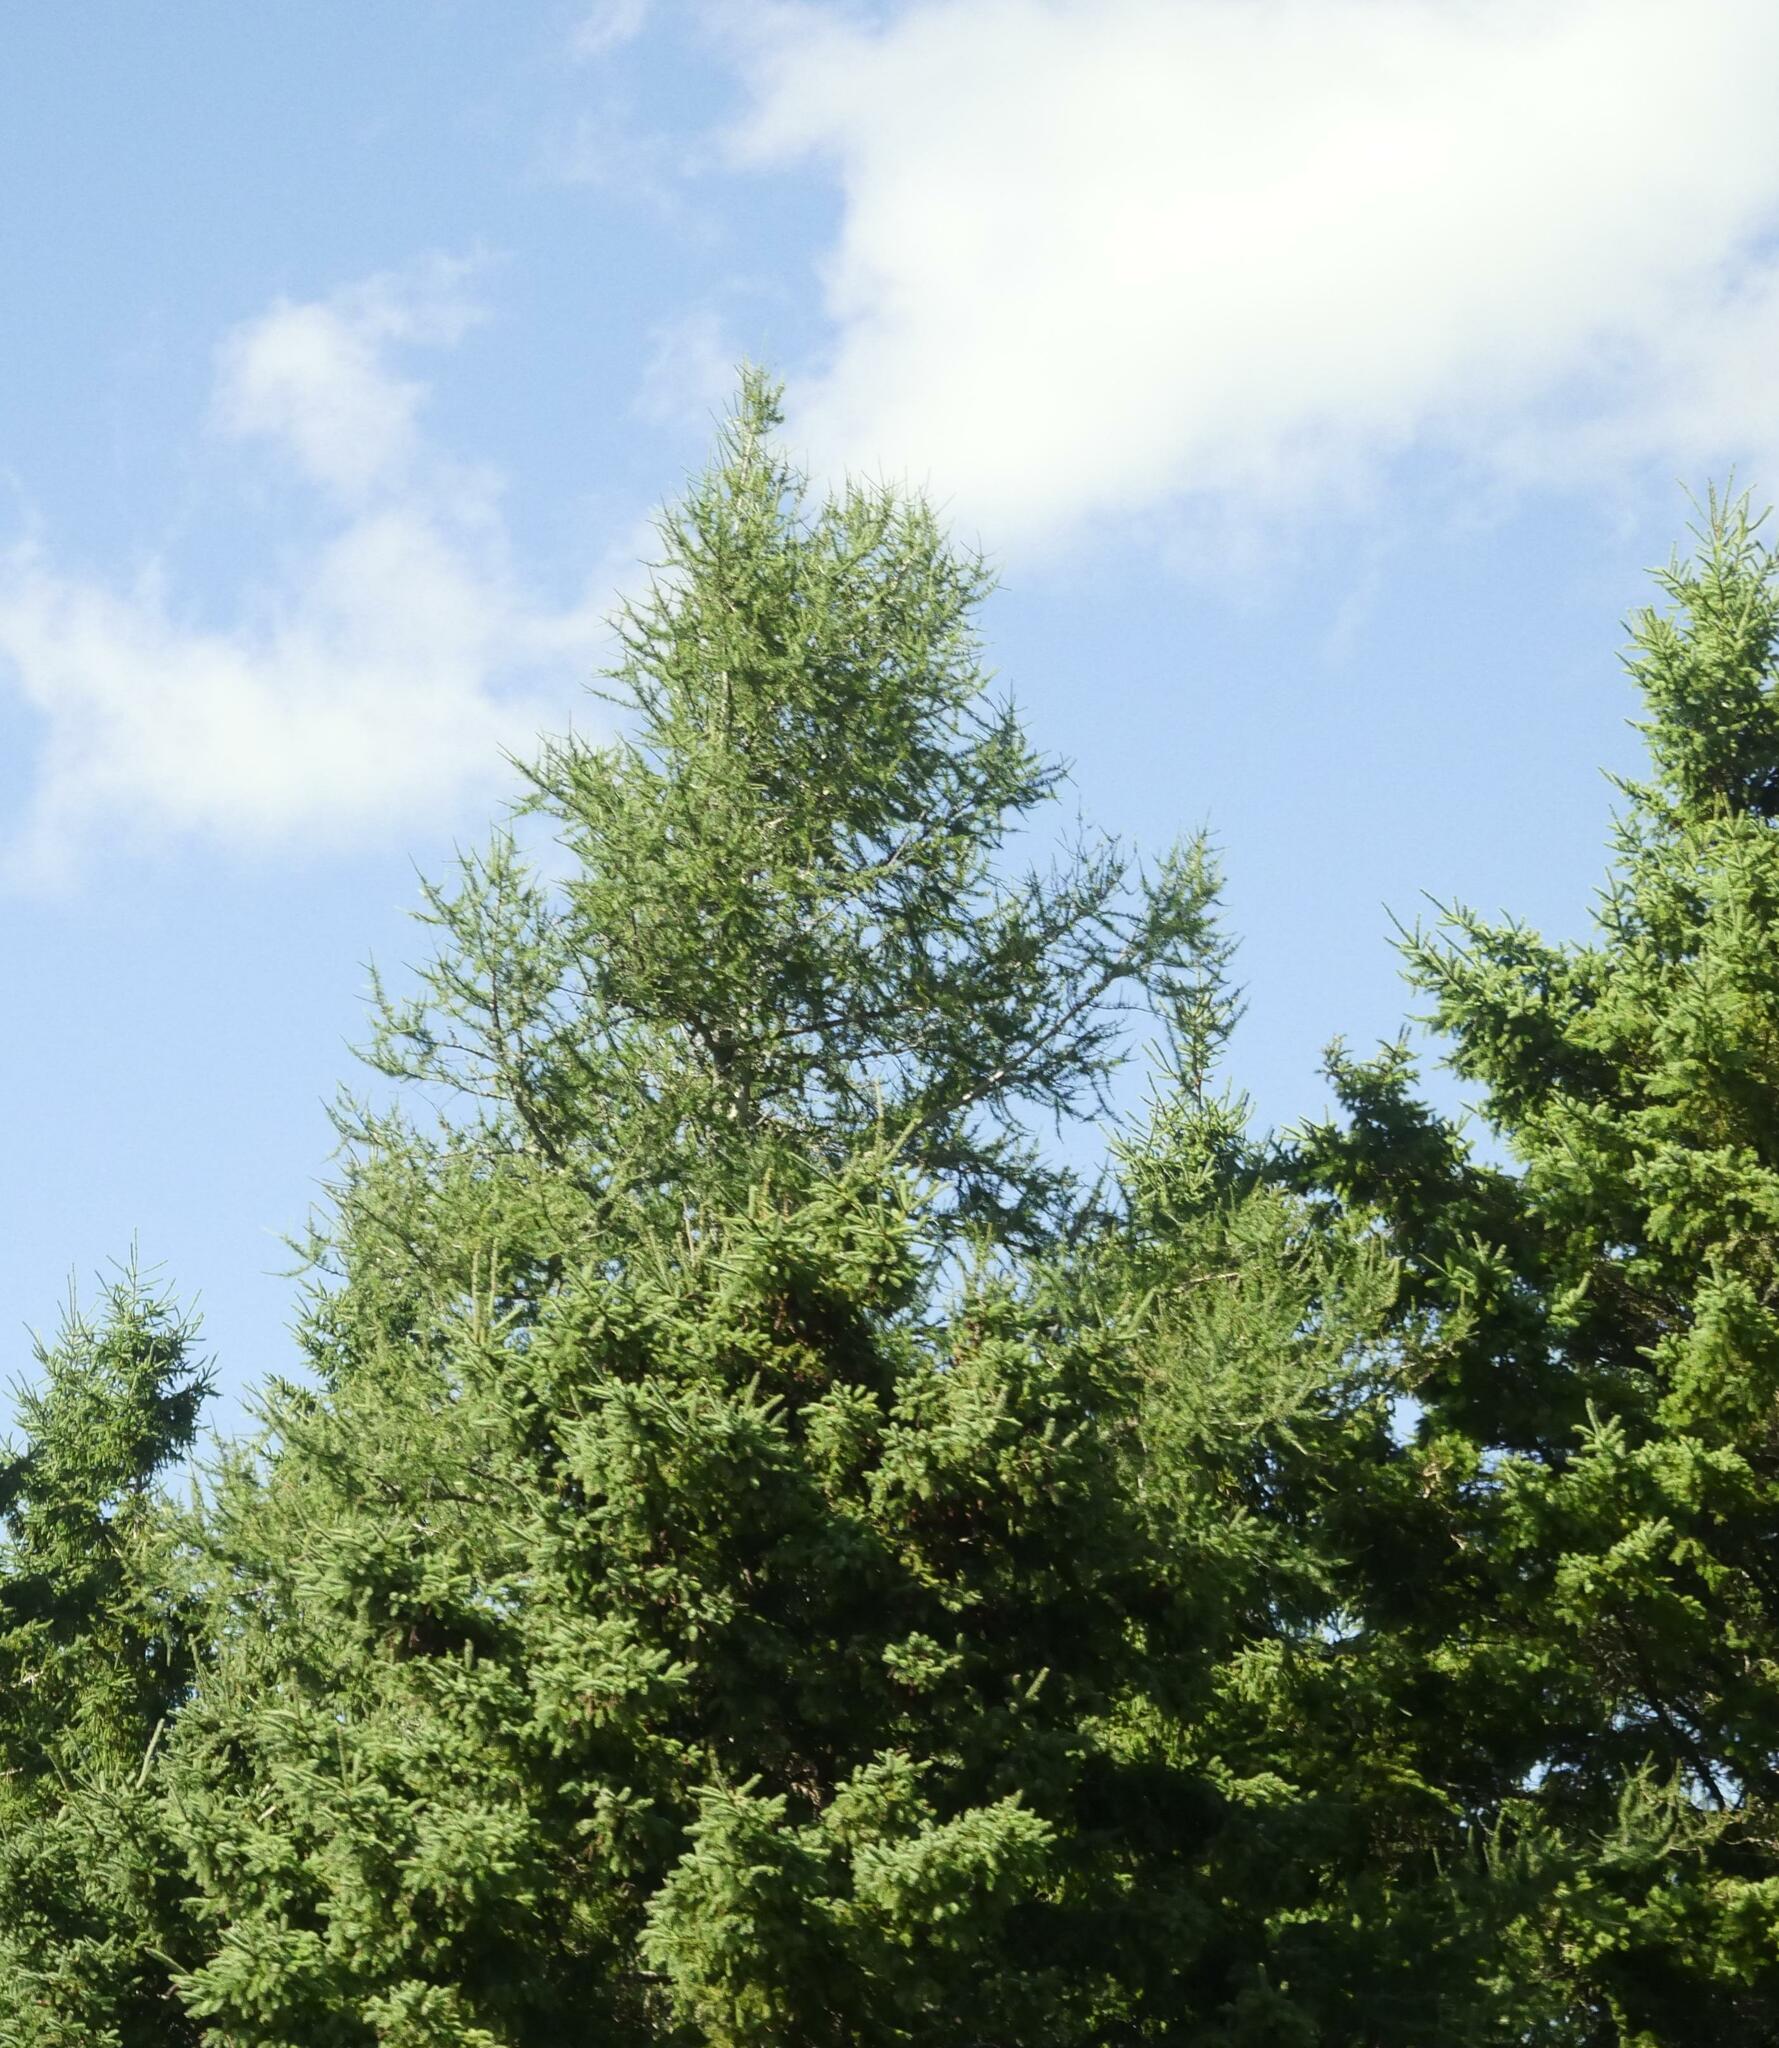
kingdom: Plantae
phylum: Tracheophyta
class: Pinopsida
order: Pinales
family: Pinaceae
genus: Larix
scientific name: Larix laricina
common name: American larch
